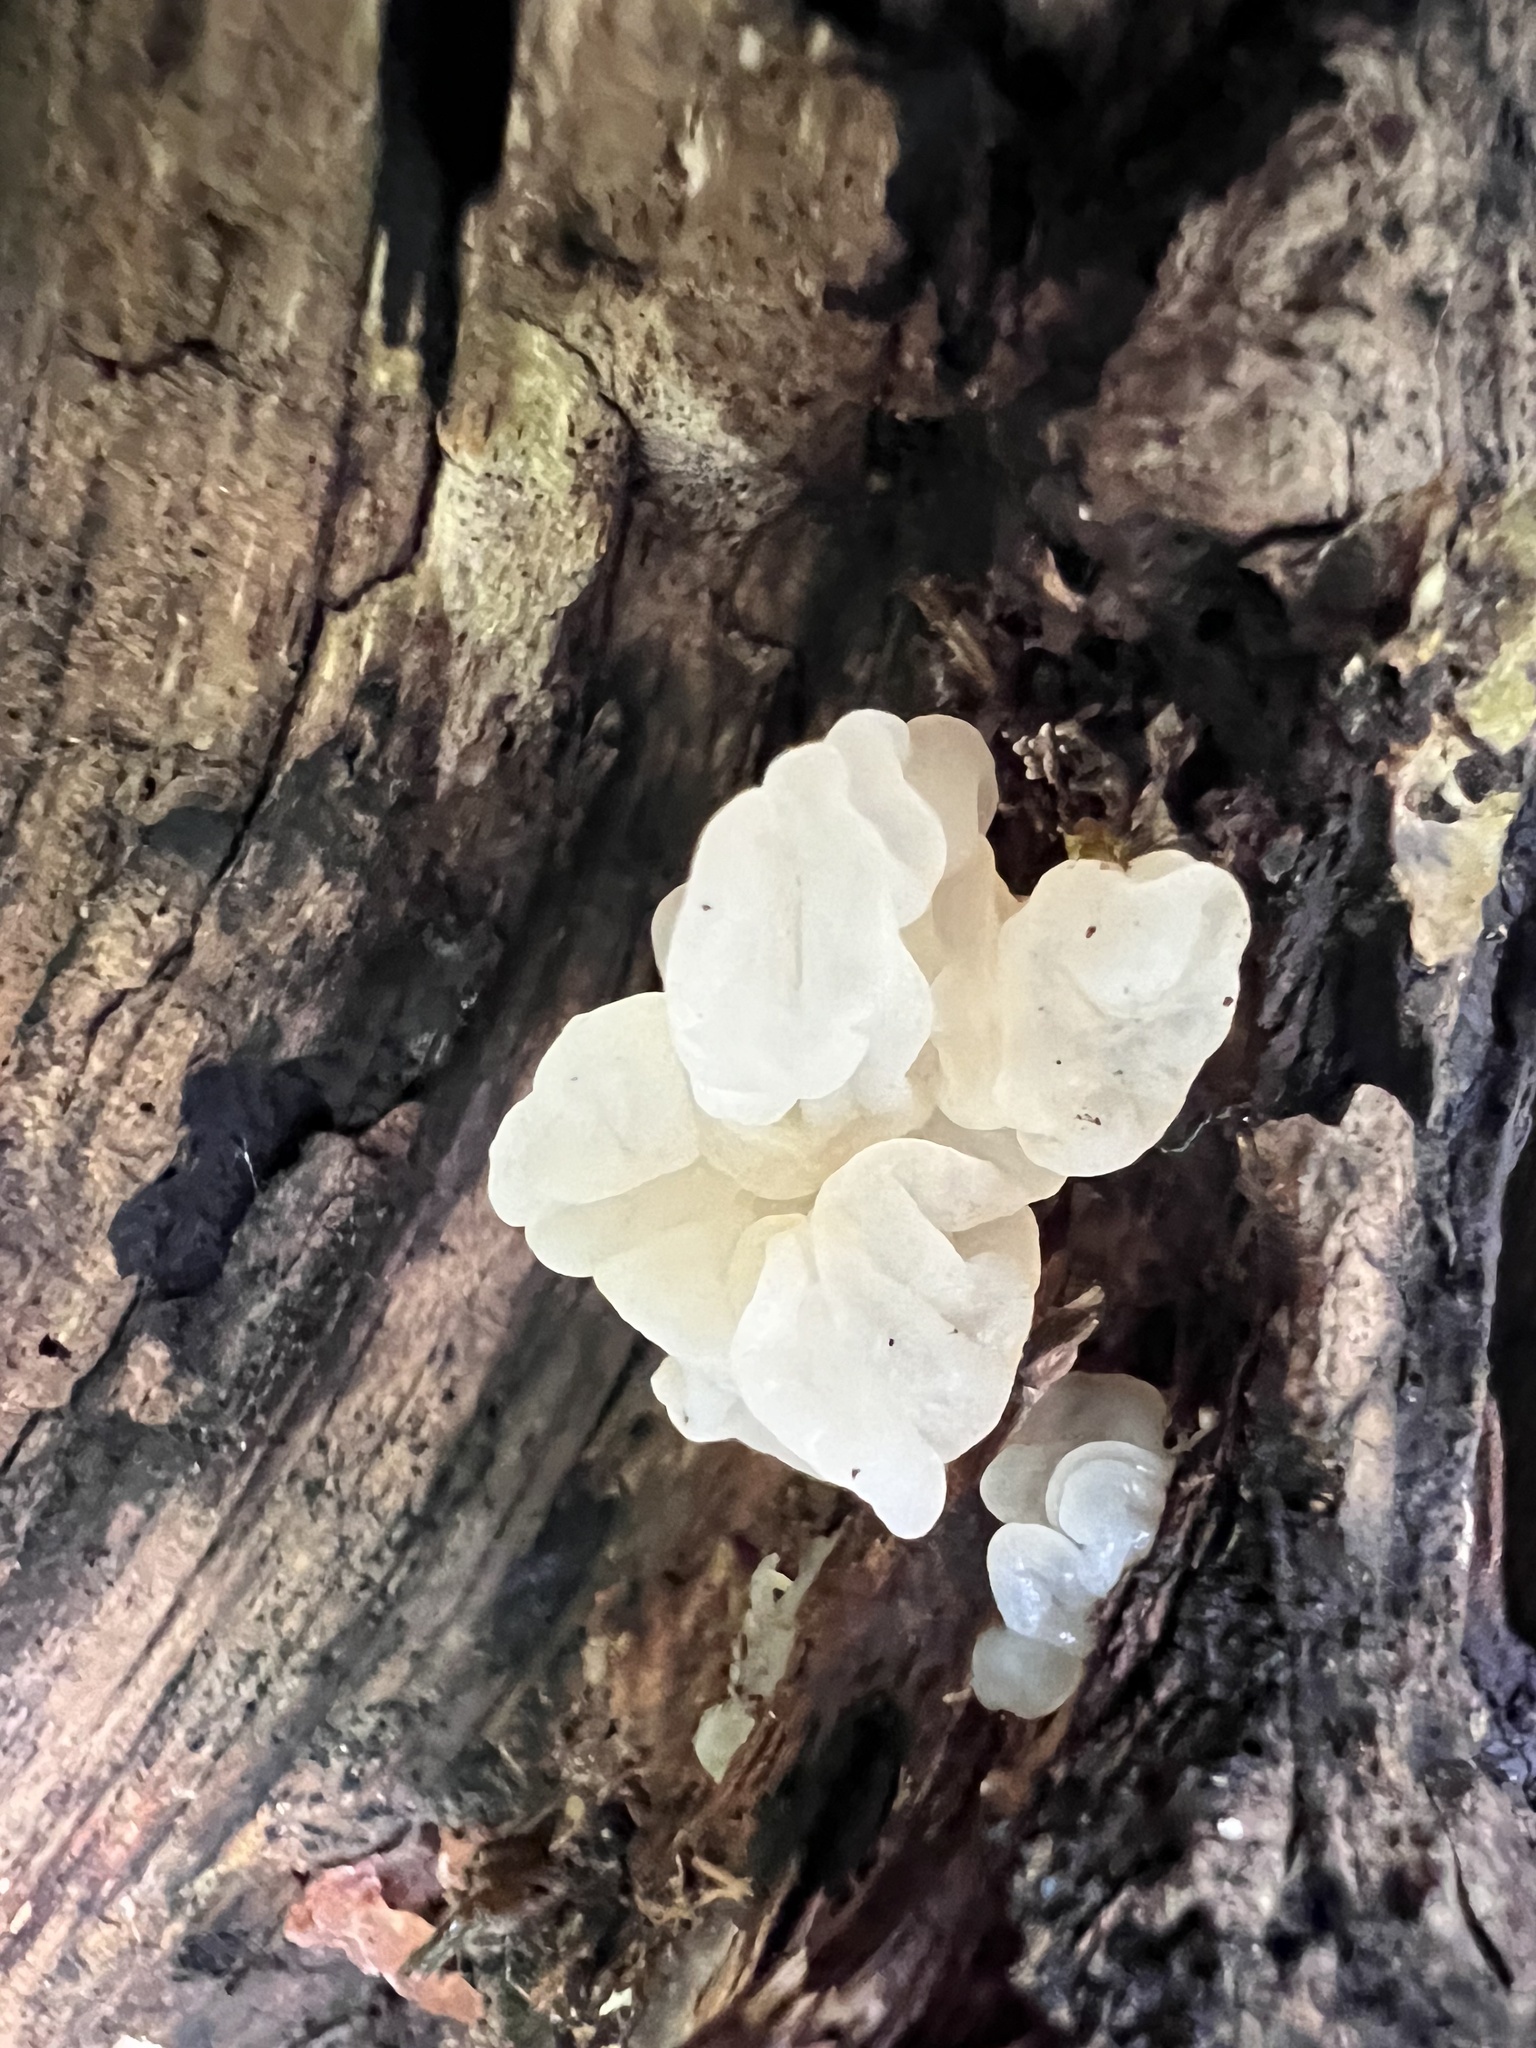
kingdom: Fungi
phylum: Basidiomycota
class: Agaricomycetes
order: Auriculariales
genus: Ductifera
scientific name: Ductifera pululahuana
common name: White jelly fungus
